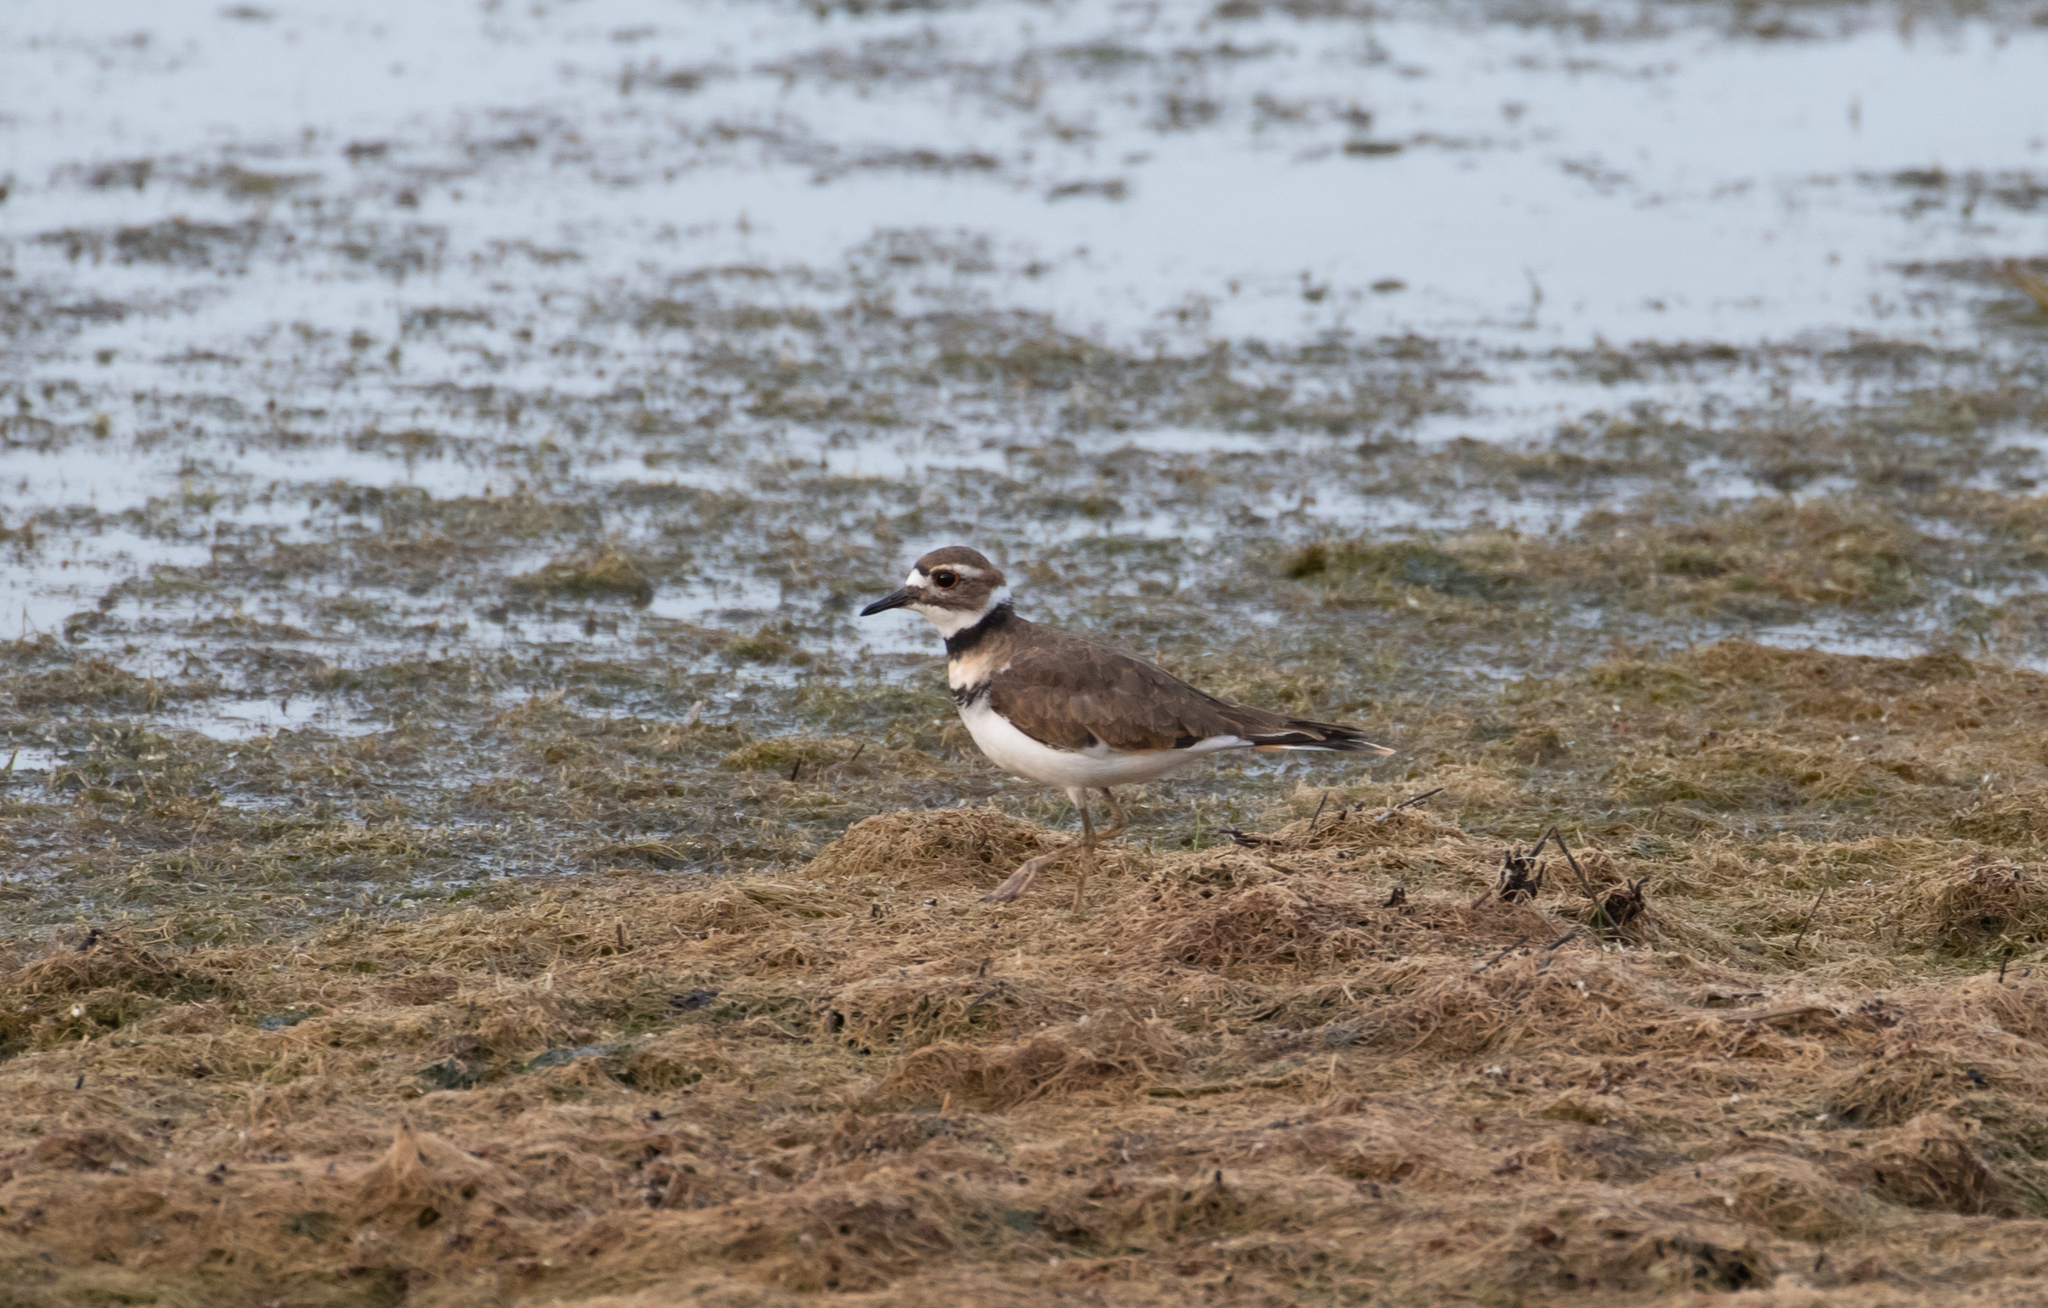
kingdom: Animalia
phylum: Chordata
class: Aves
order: Charadriiformes
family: Charadriidae
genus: Charadrius
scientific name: Charadrius vociferus
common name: Killdeer
